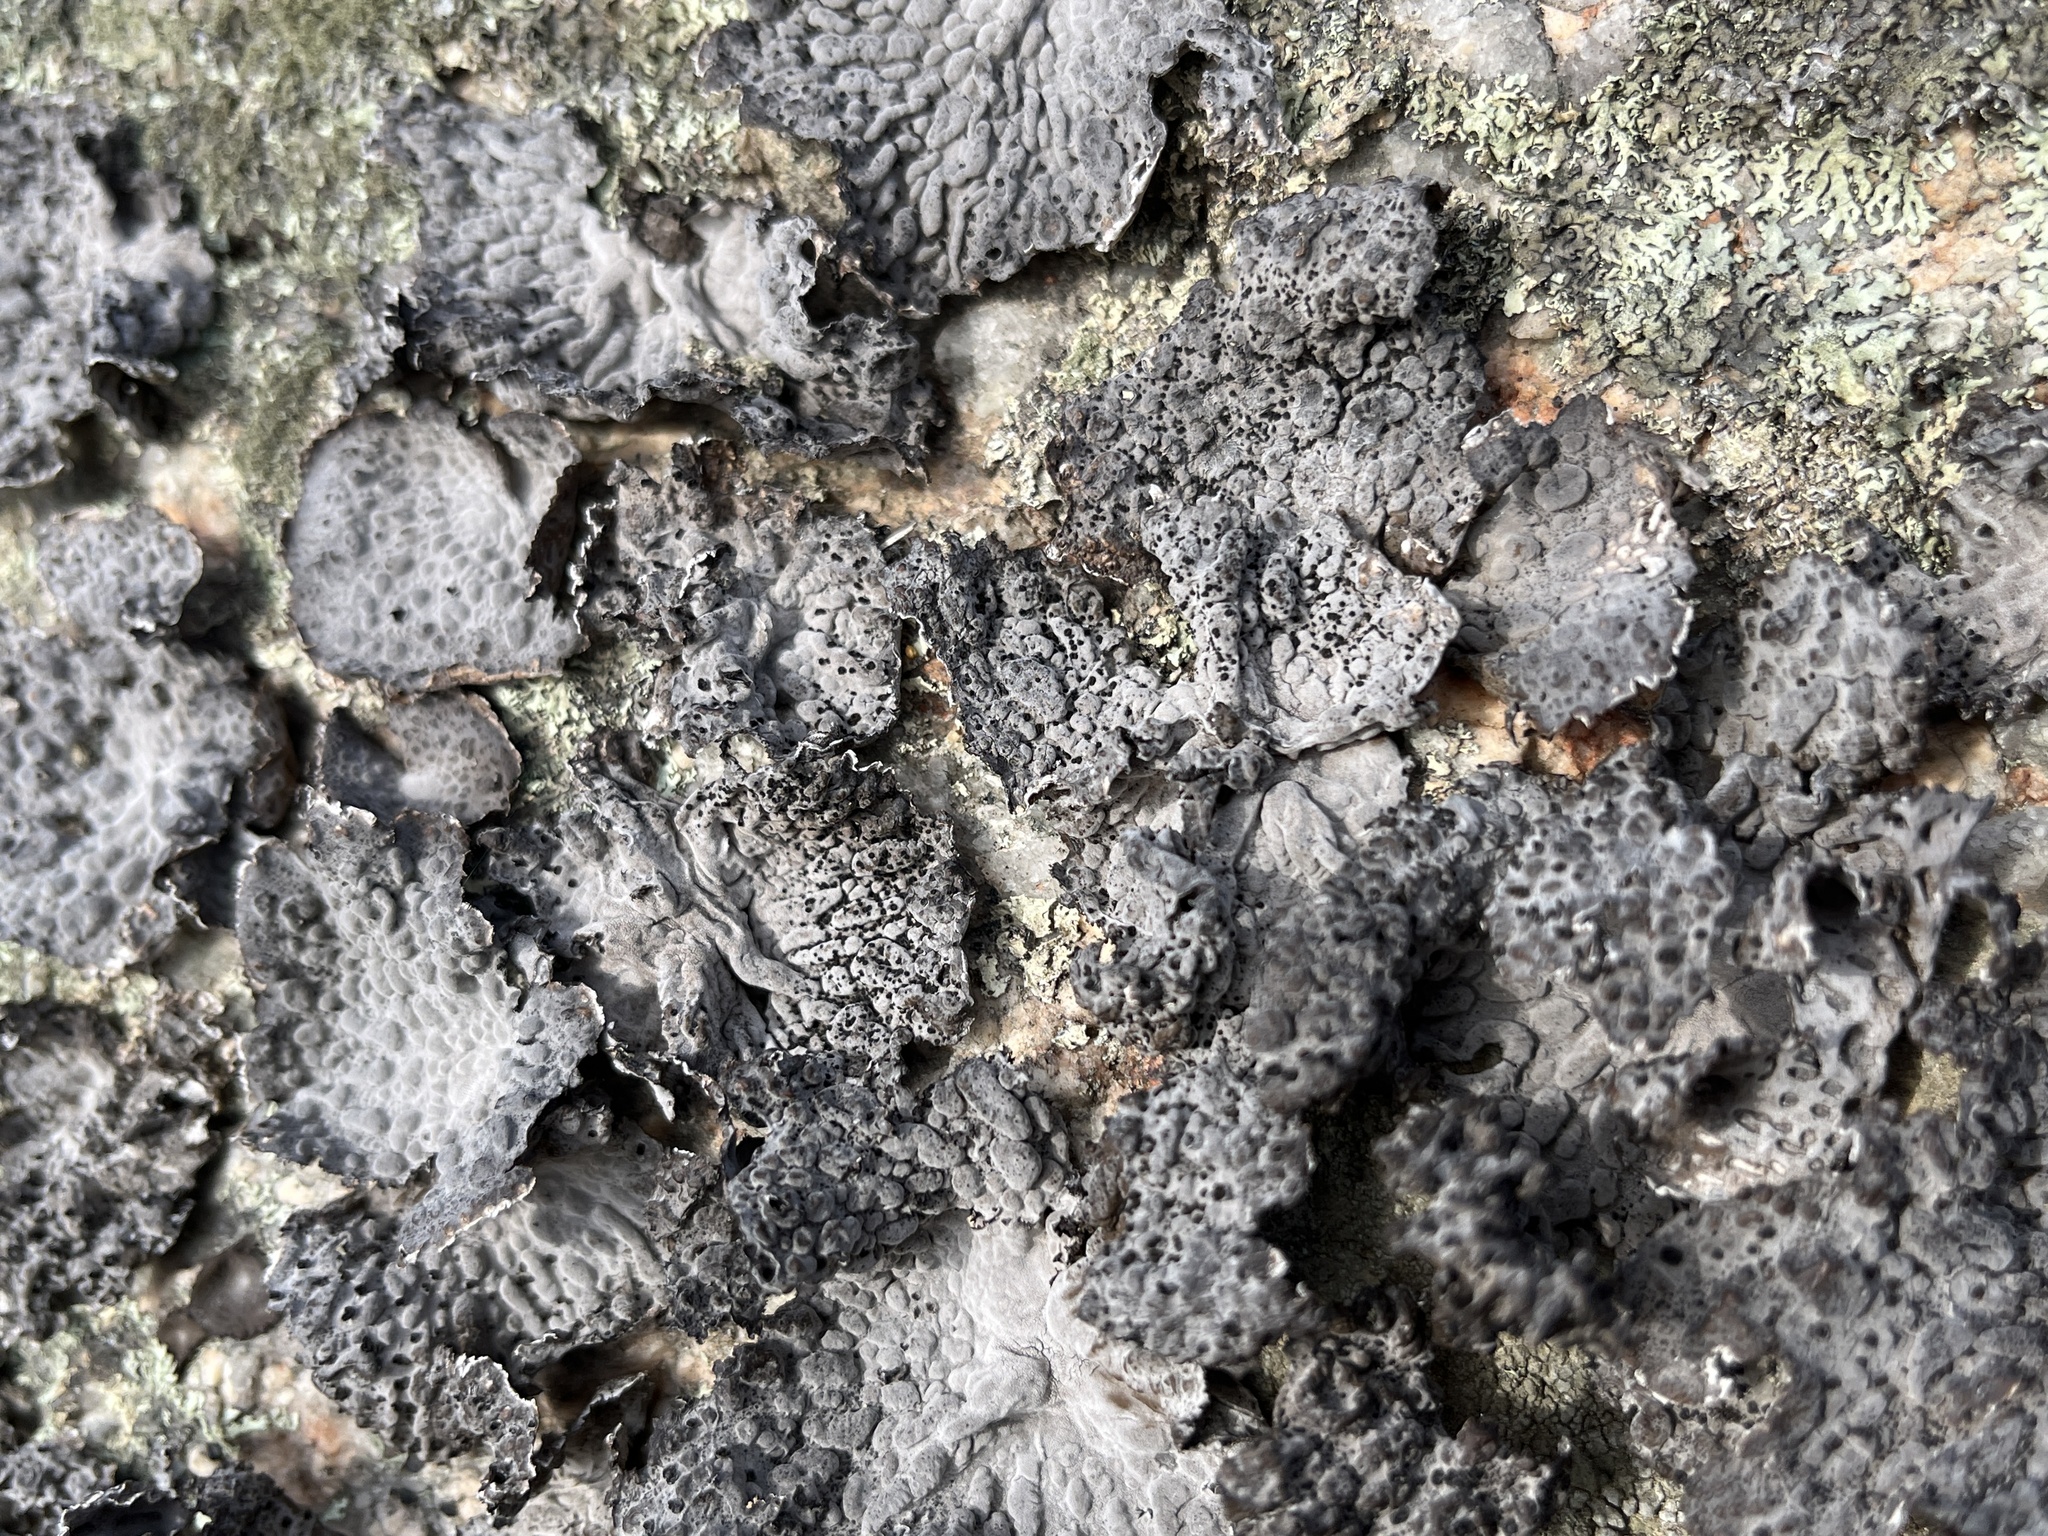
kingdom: Fungi
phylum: Ascomycota
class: Lecanoromycetes
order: Umbilicariales
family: Umbilicariaceae
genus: Lasallia
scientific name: Lasallia papulosa
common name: Common toadskin lichen
